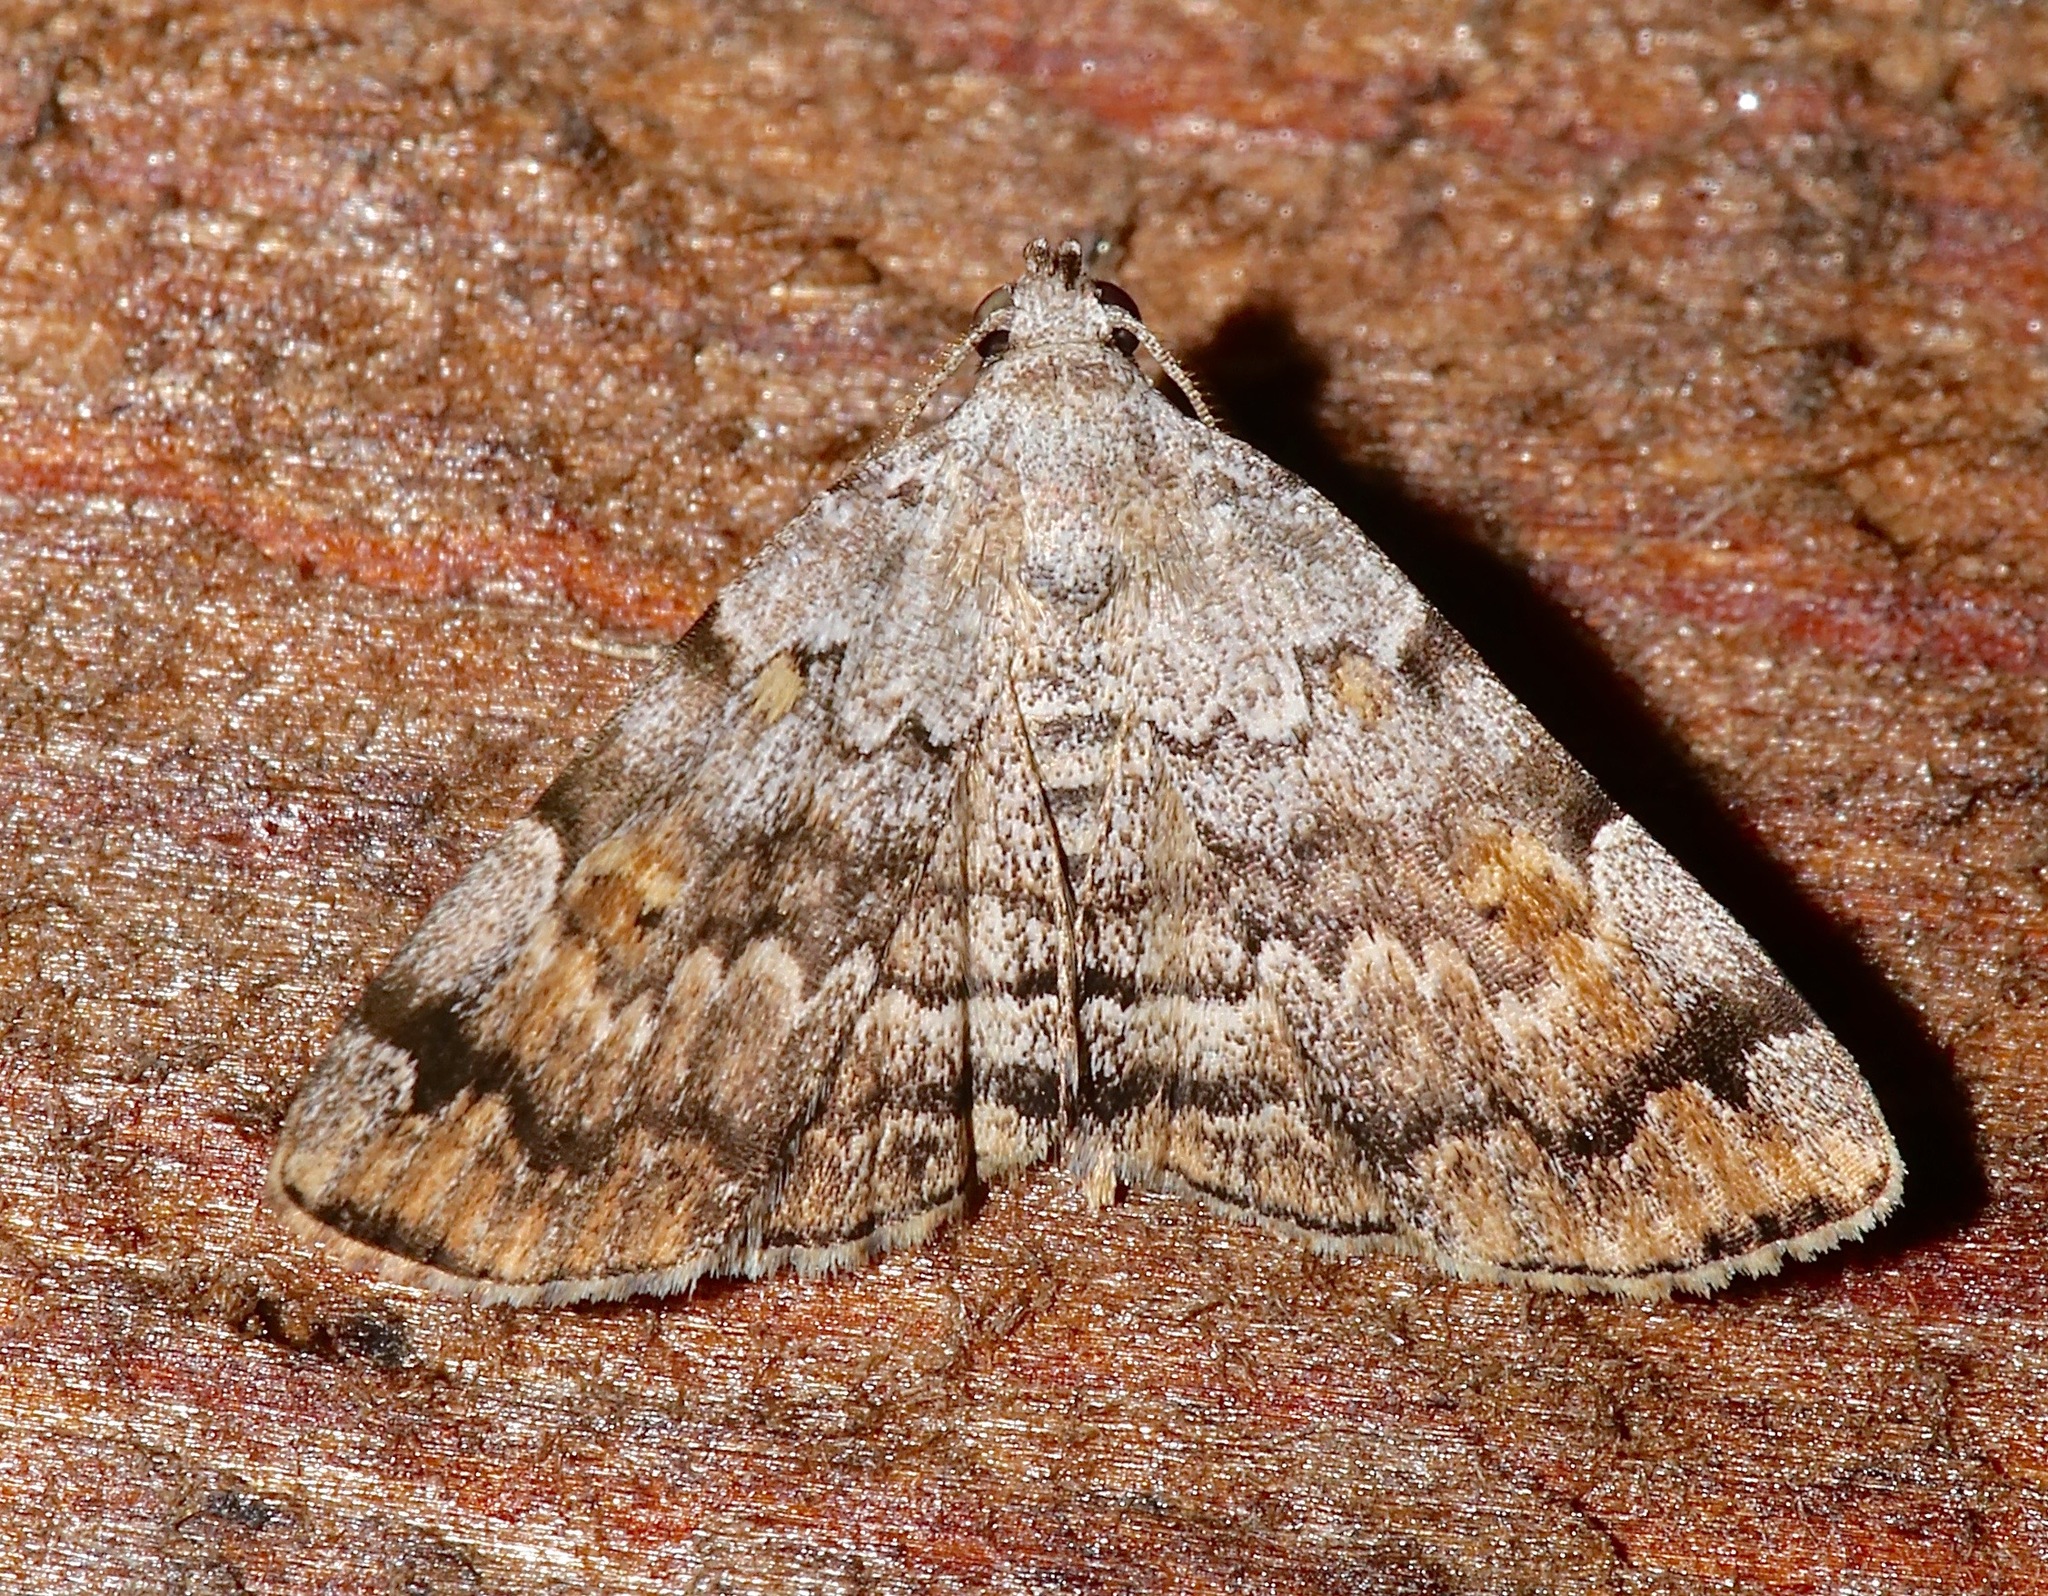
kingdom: Animalia
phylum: Arthropoda
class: Insecta
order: Lepidoptera
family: Erebidae
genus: Idia
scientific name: Idia americalis
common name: American idia moth
